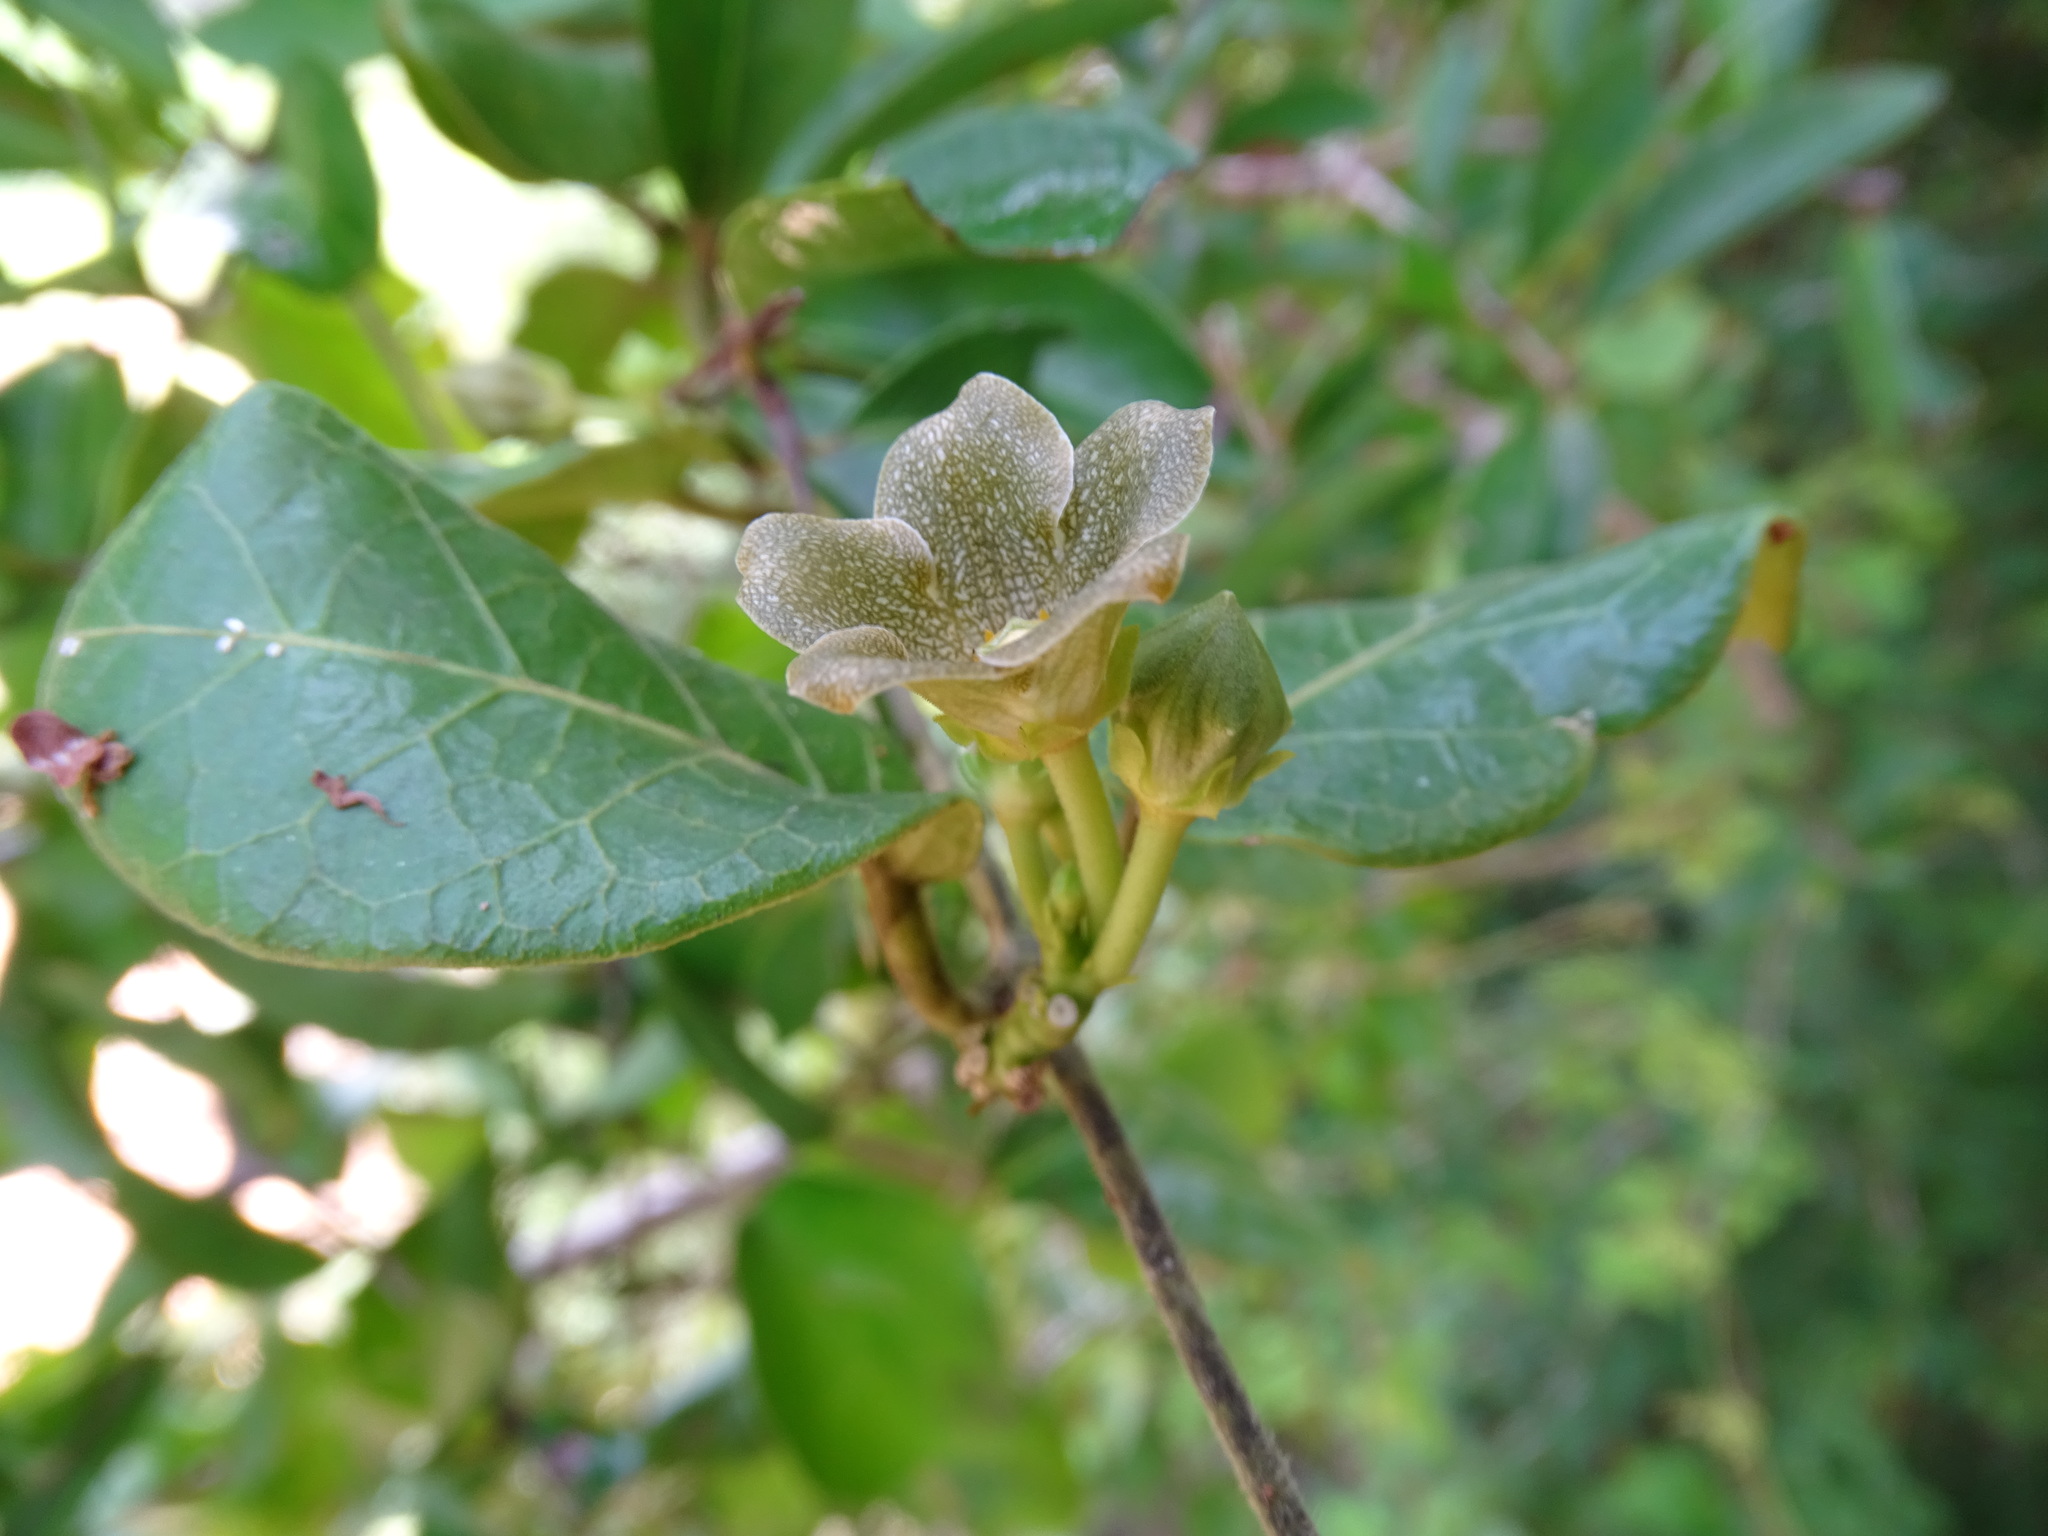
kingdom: Plantae
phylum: Tracheophyta
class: Magnoliopsida
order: Gentianales
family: Apocynaceae
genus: Matelea
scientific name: Matelea crassifolia
